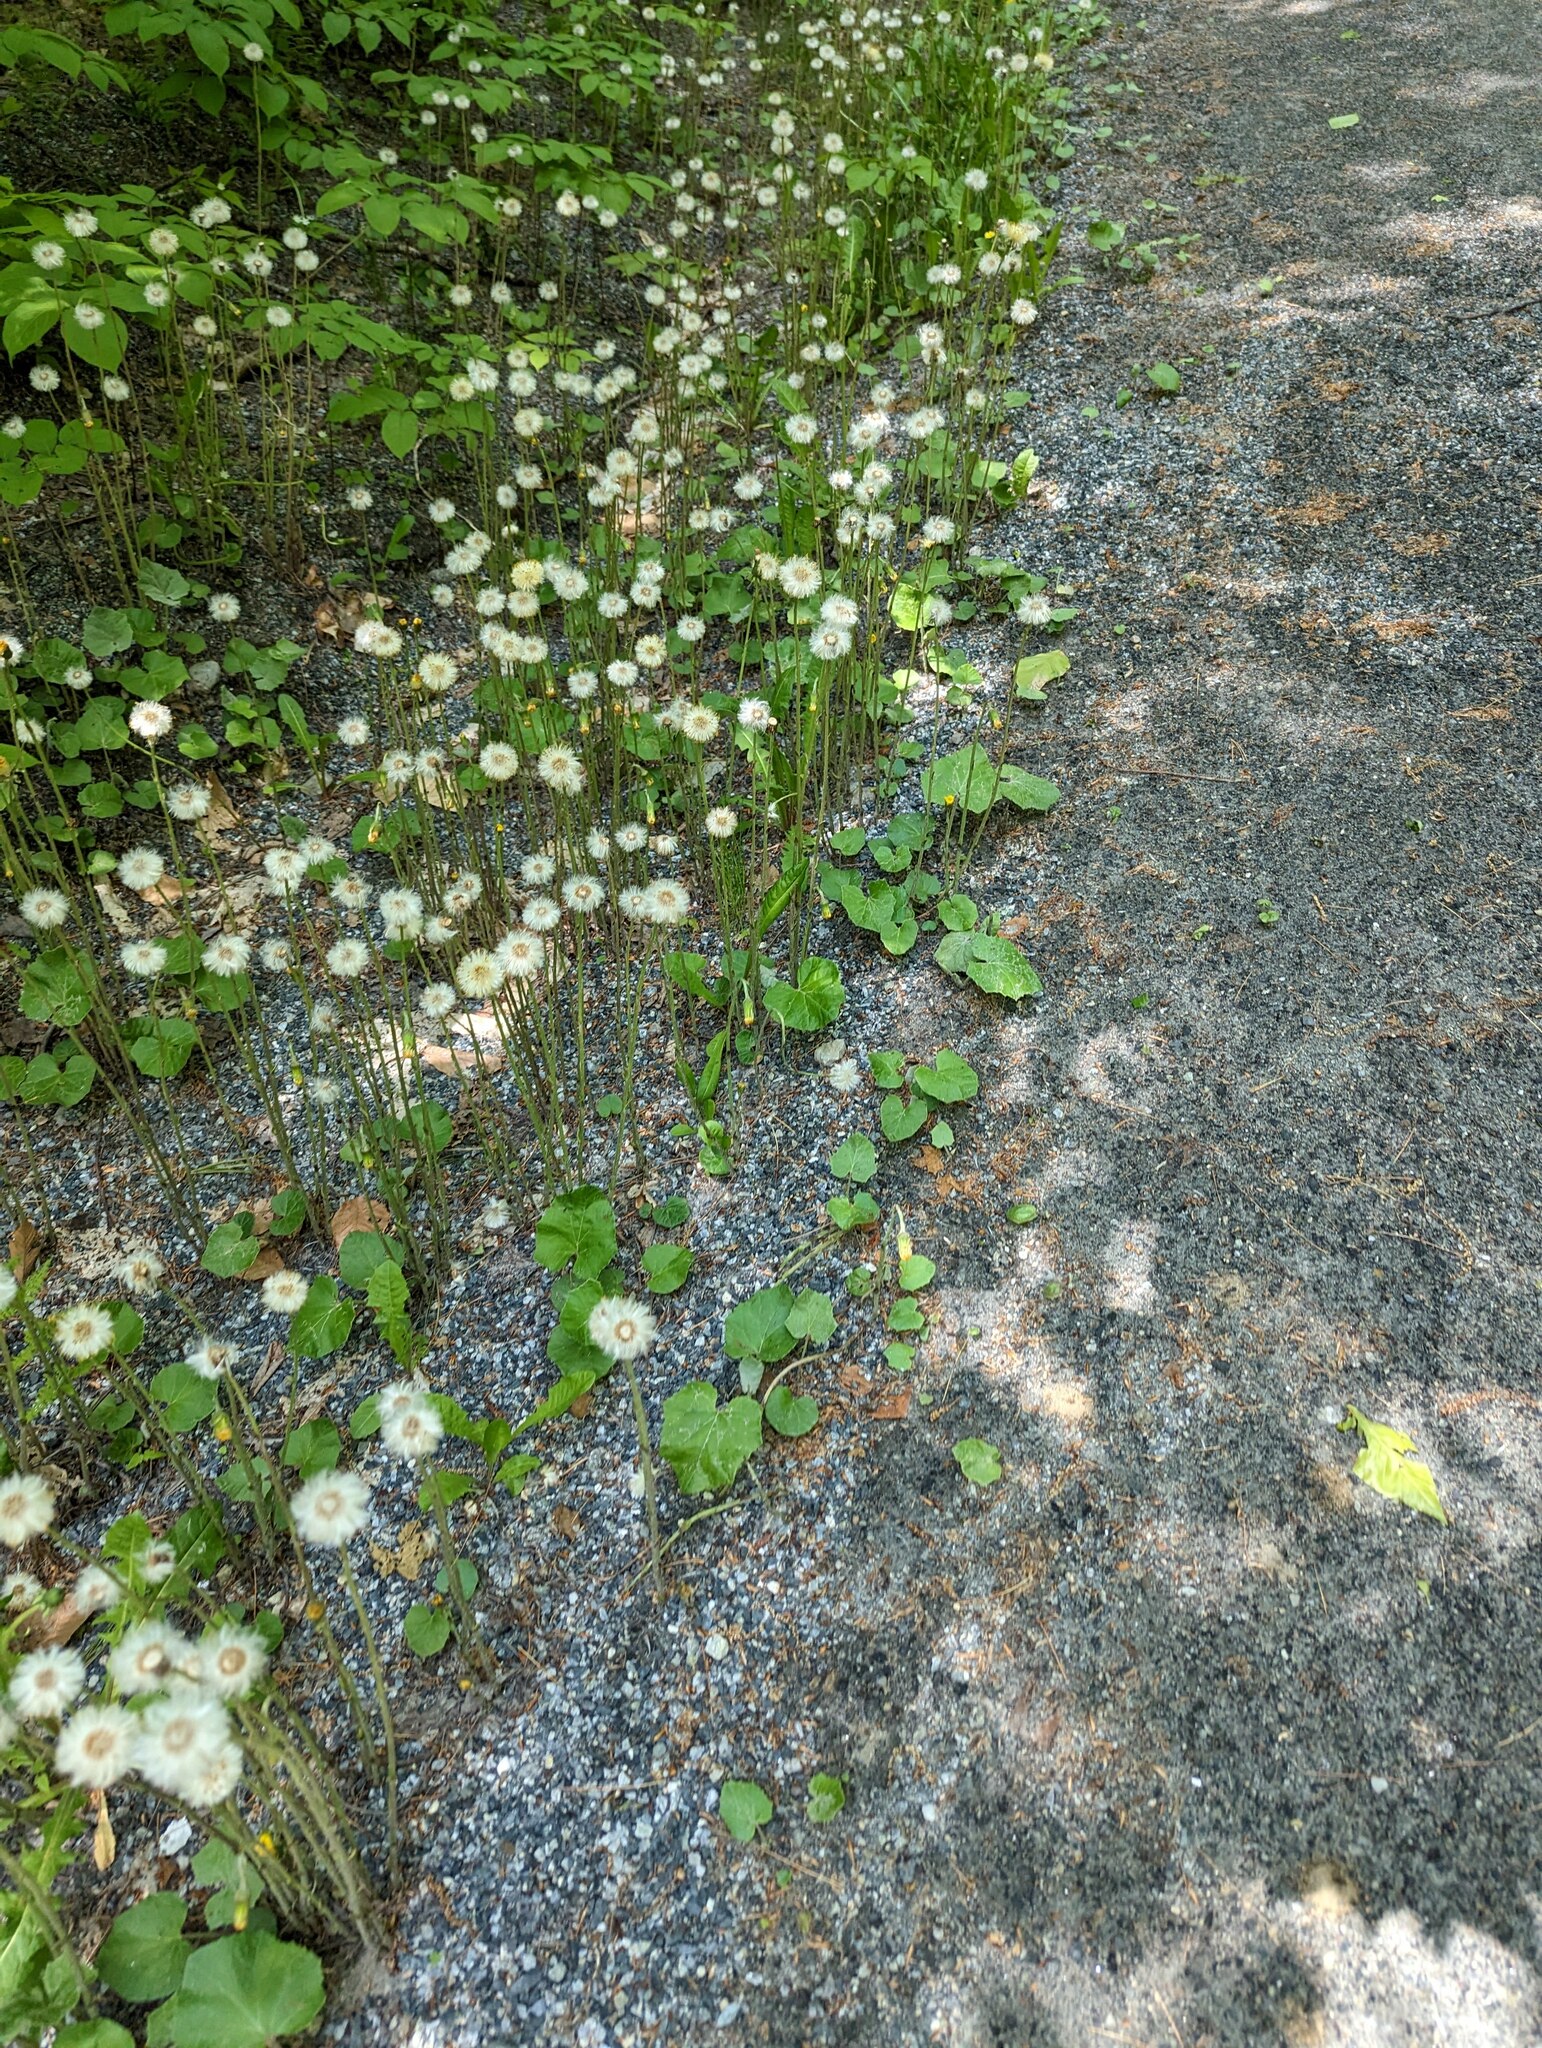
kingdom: Plantae
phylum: Tracheophyta
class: Magnoliopsida
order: Asterales
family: Asteraceae
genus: Tussilago
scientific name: Tussilago farfara
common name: Coltsfoot
